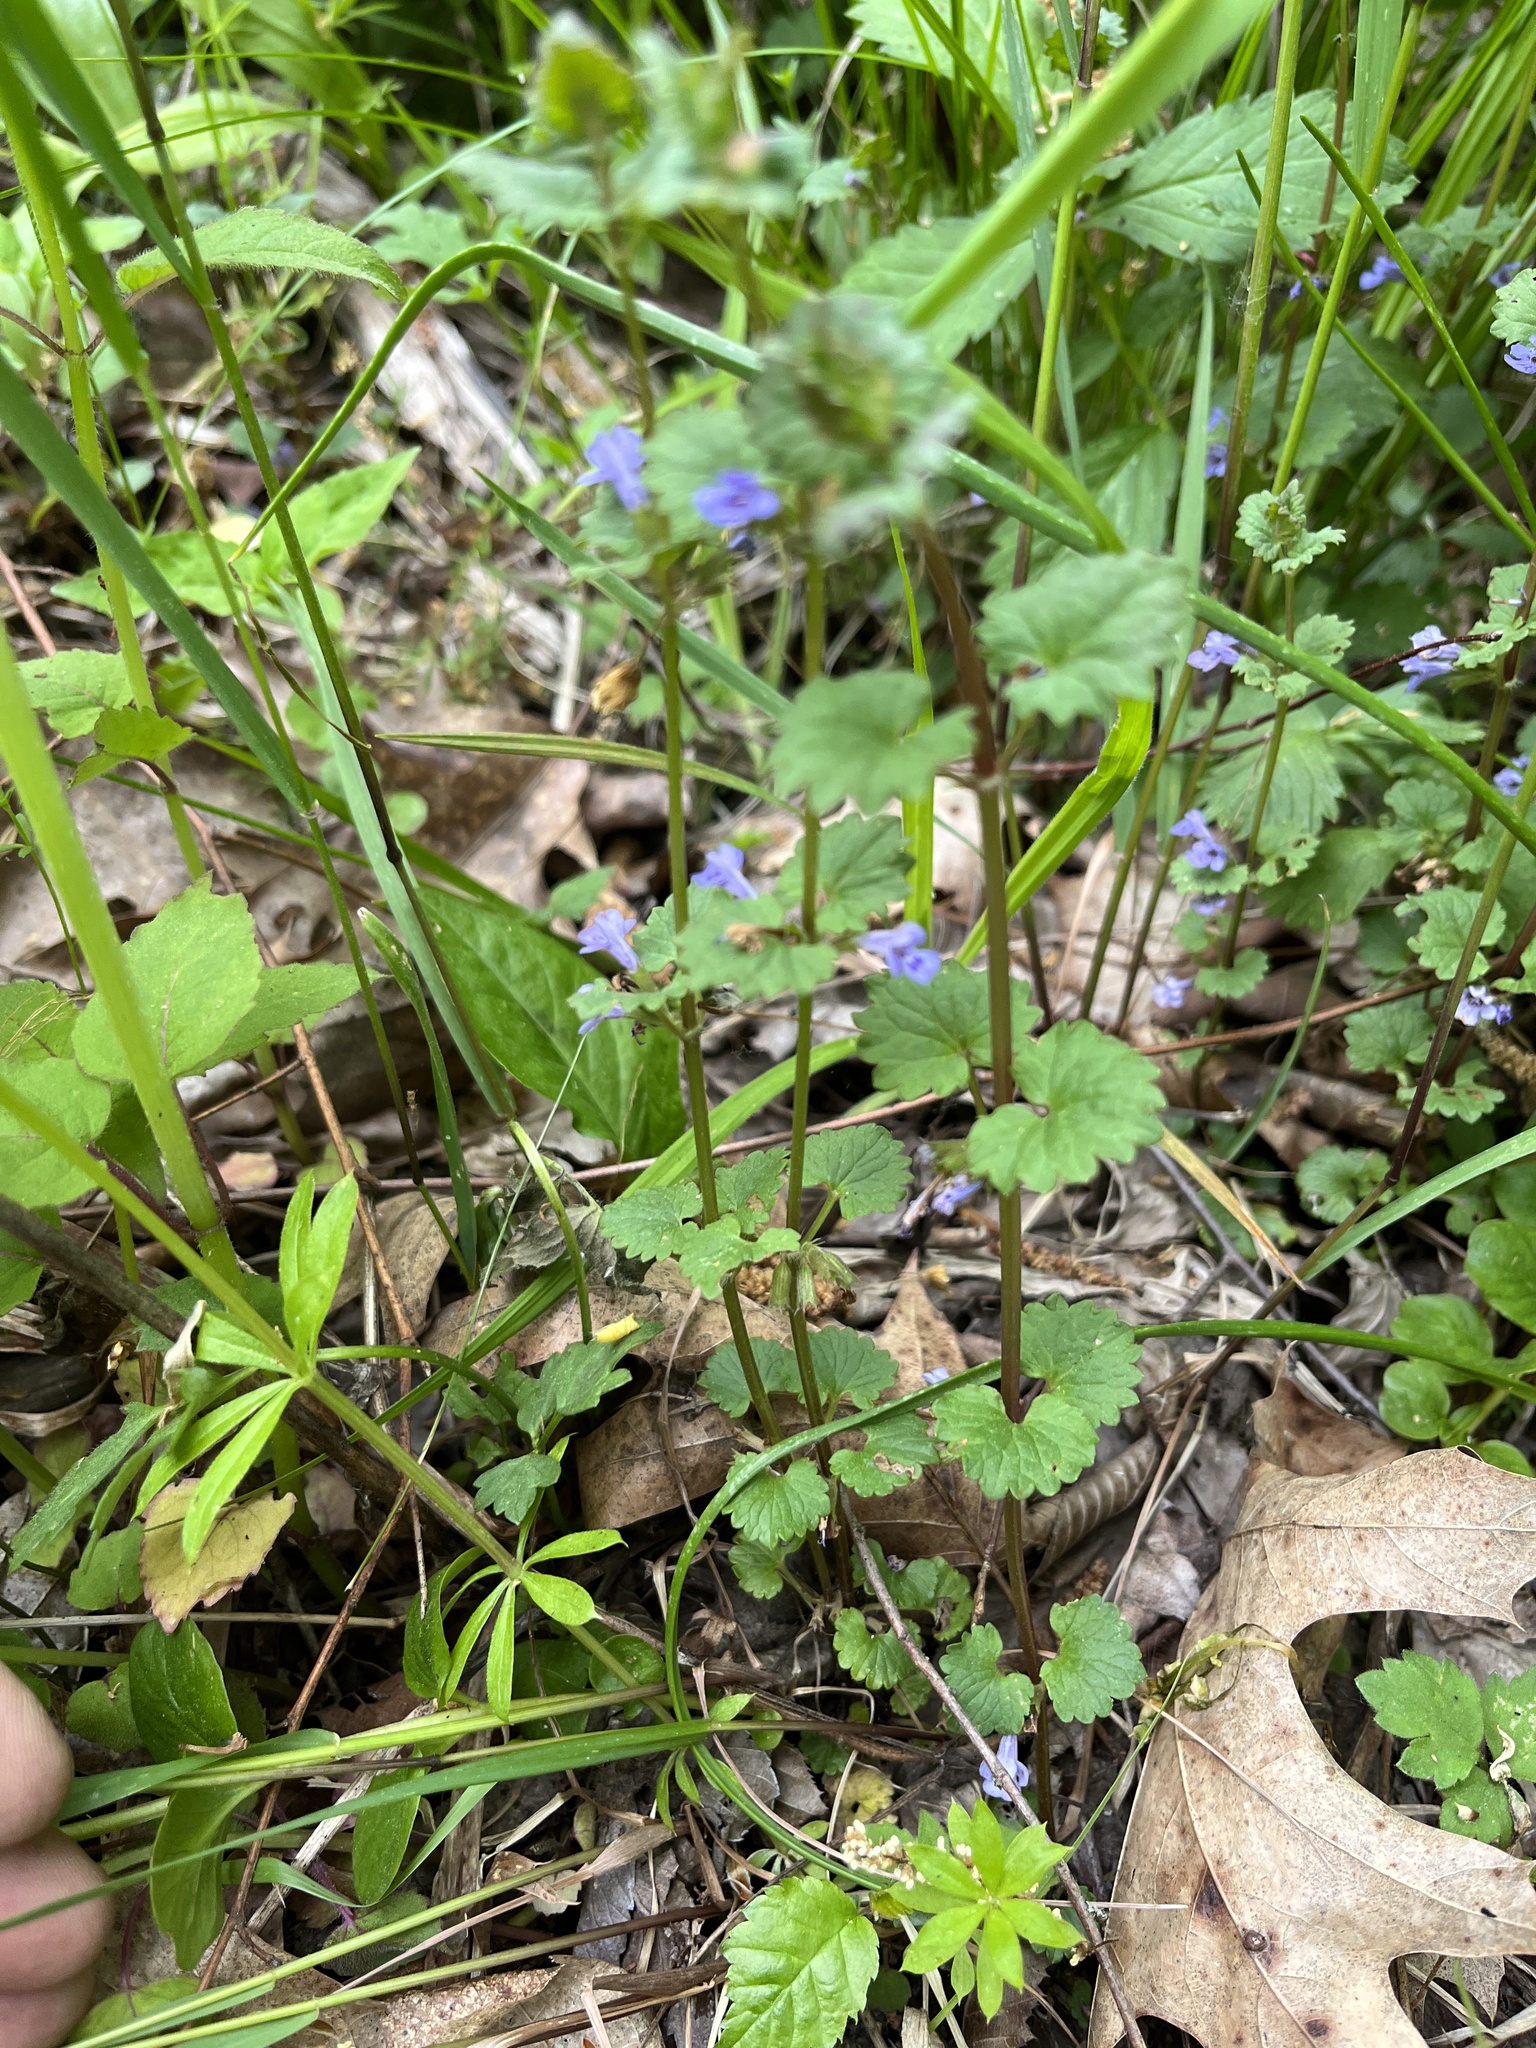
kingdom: Plantae
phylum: Tracheophyta
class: Magnoliopsida
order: Lamiales
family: Lamiaceae
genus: Glechoma
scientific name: Glechoma hederacea
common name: Ground ivy
